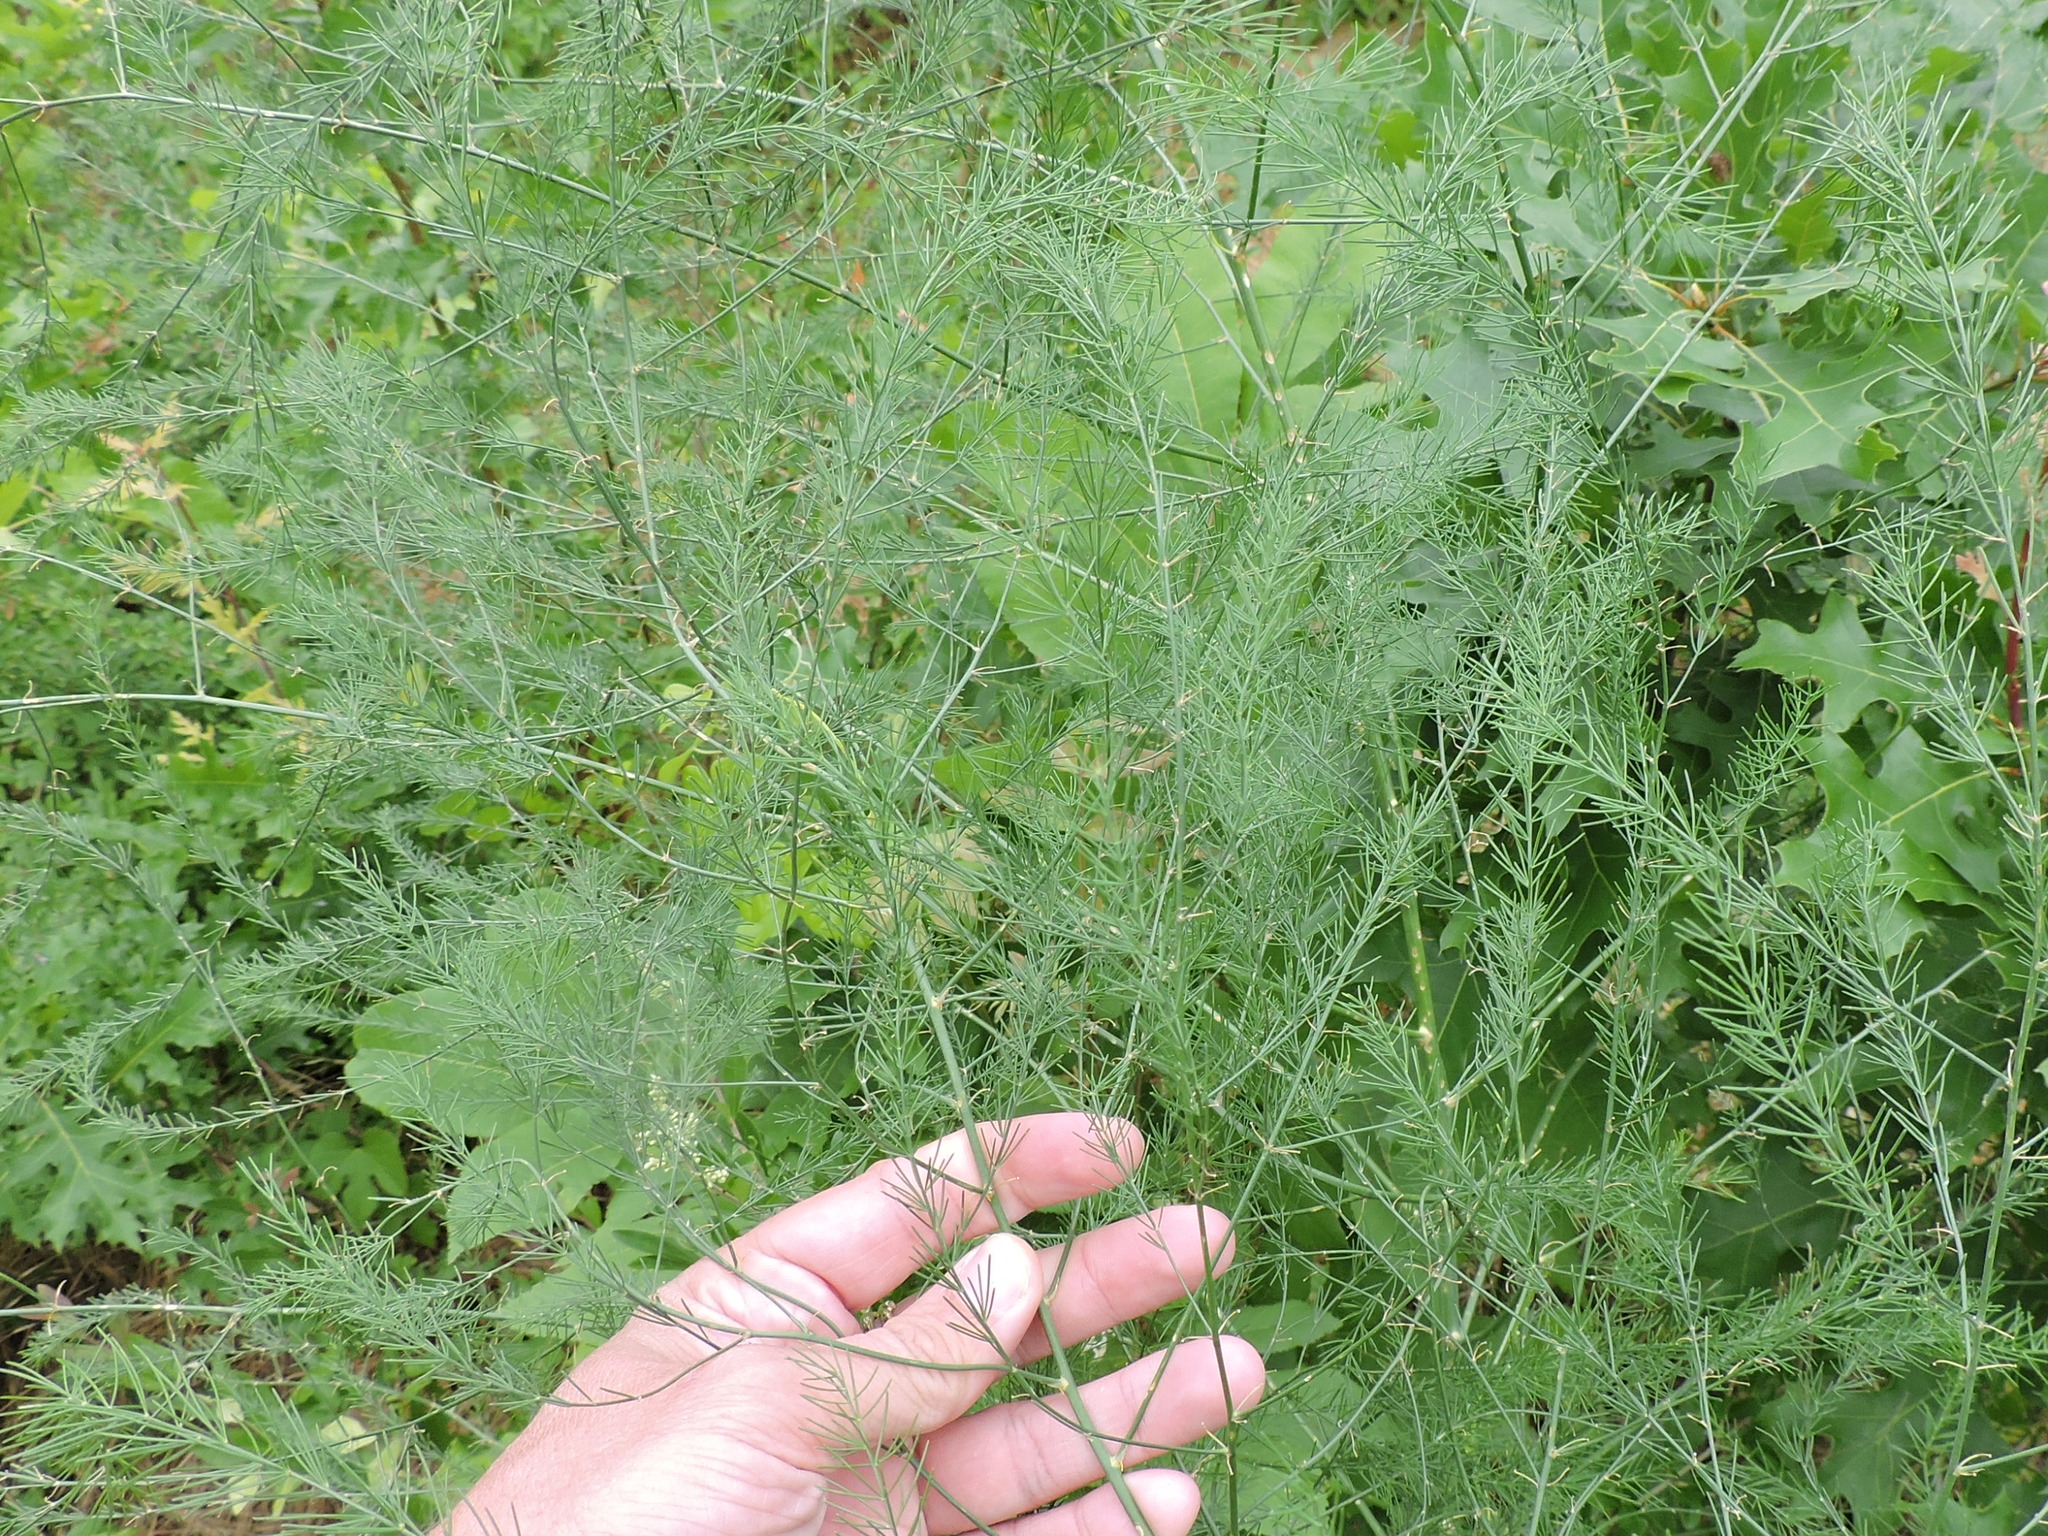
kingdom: Plantae
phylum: Tracheophyta
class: Liliopsida
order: Asparagales
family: Asparagaceae
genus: Asparagus
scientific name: Asparagus officinalis
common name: Garden asparagus
